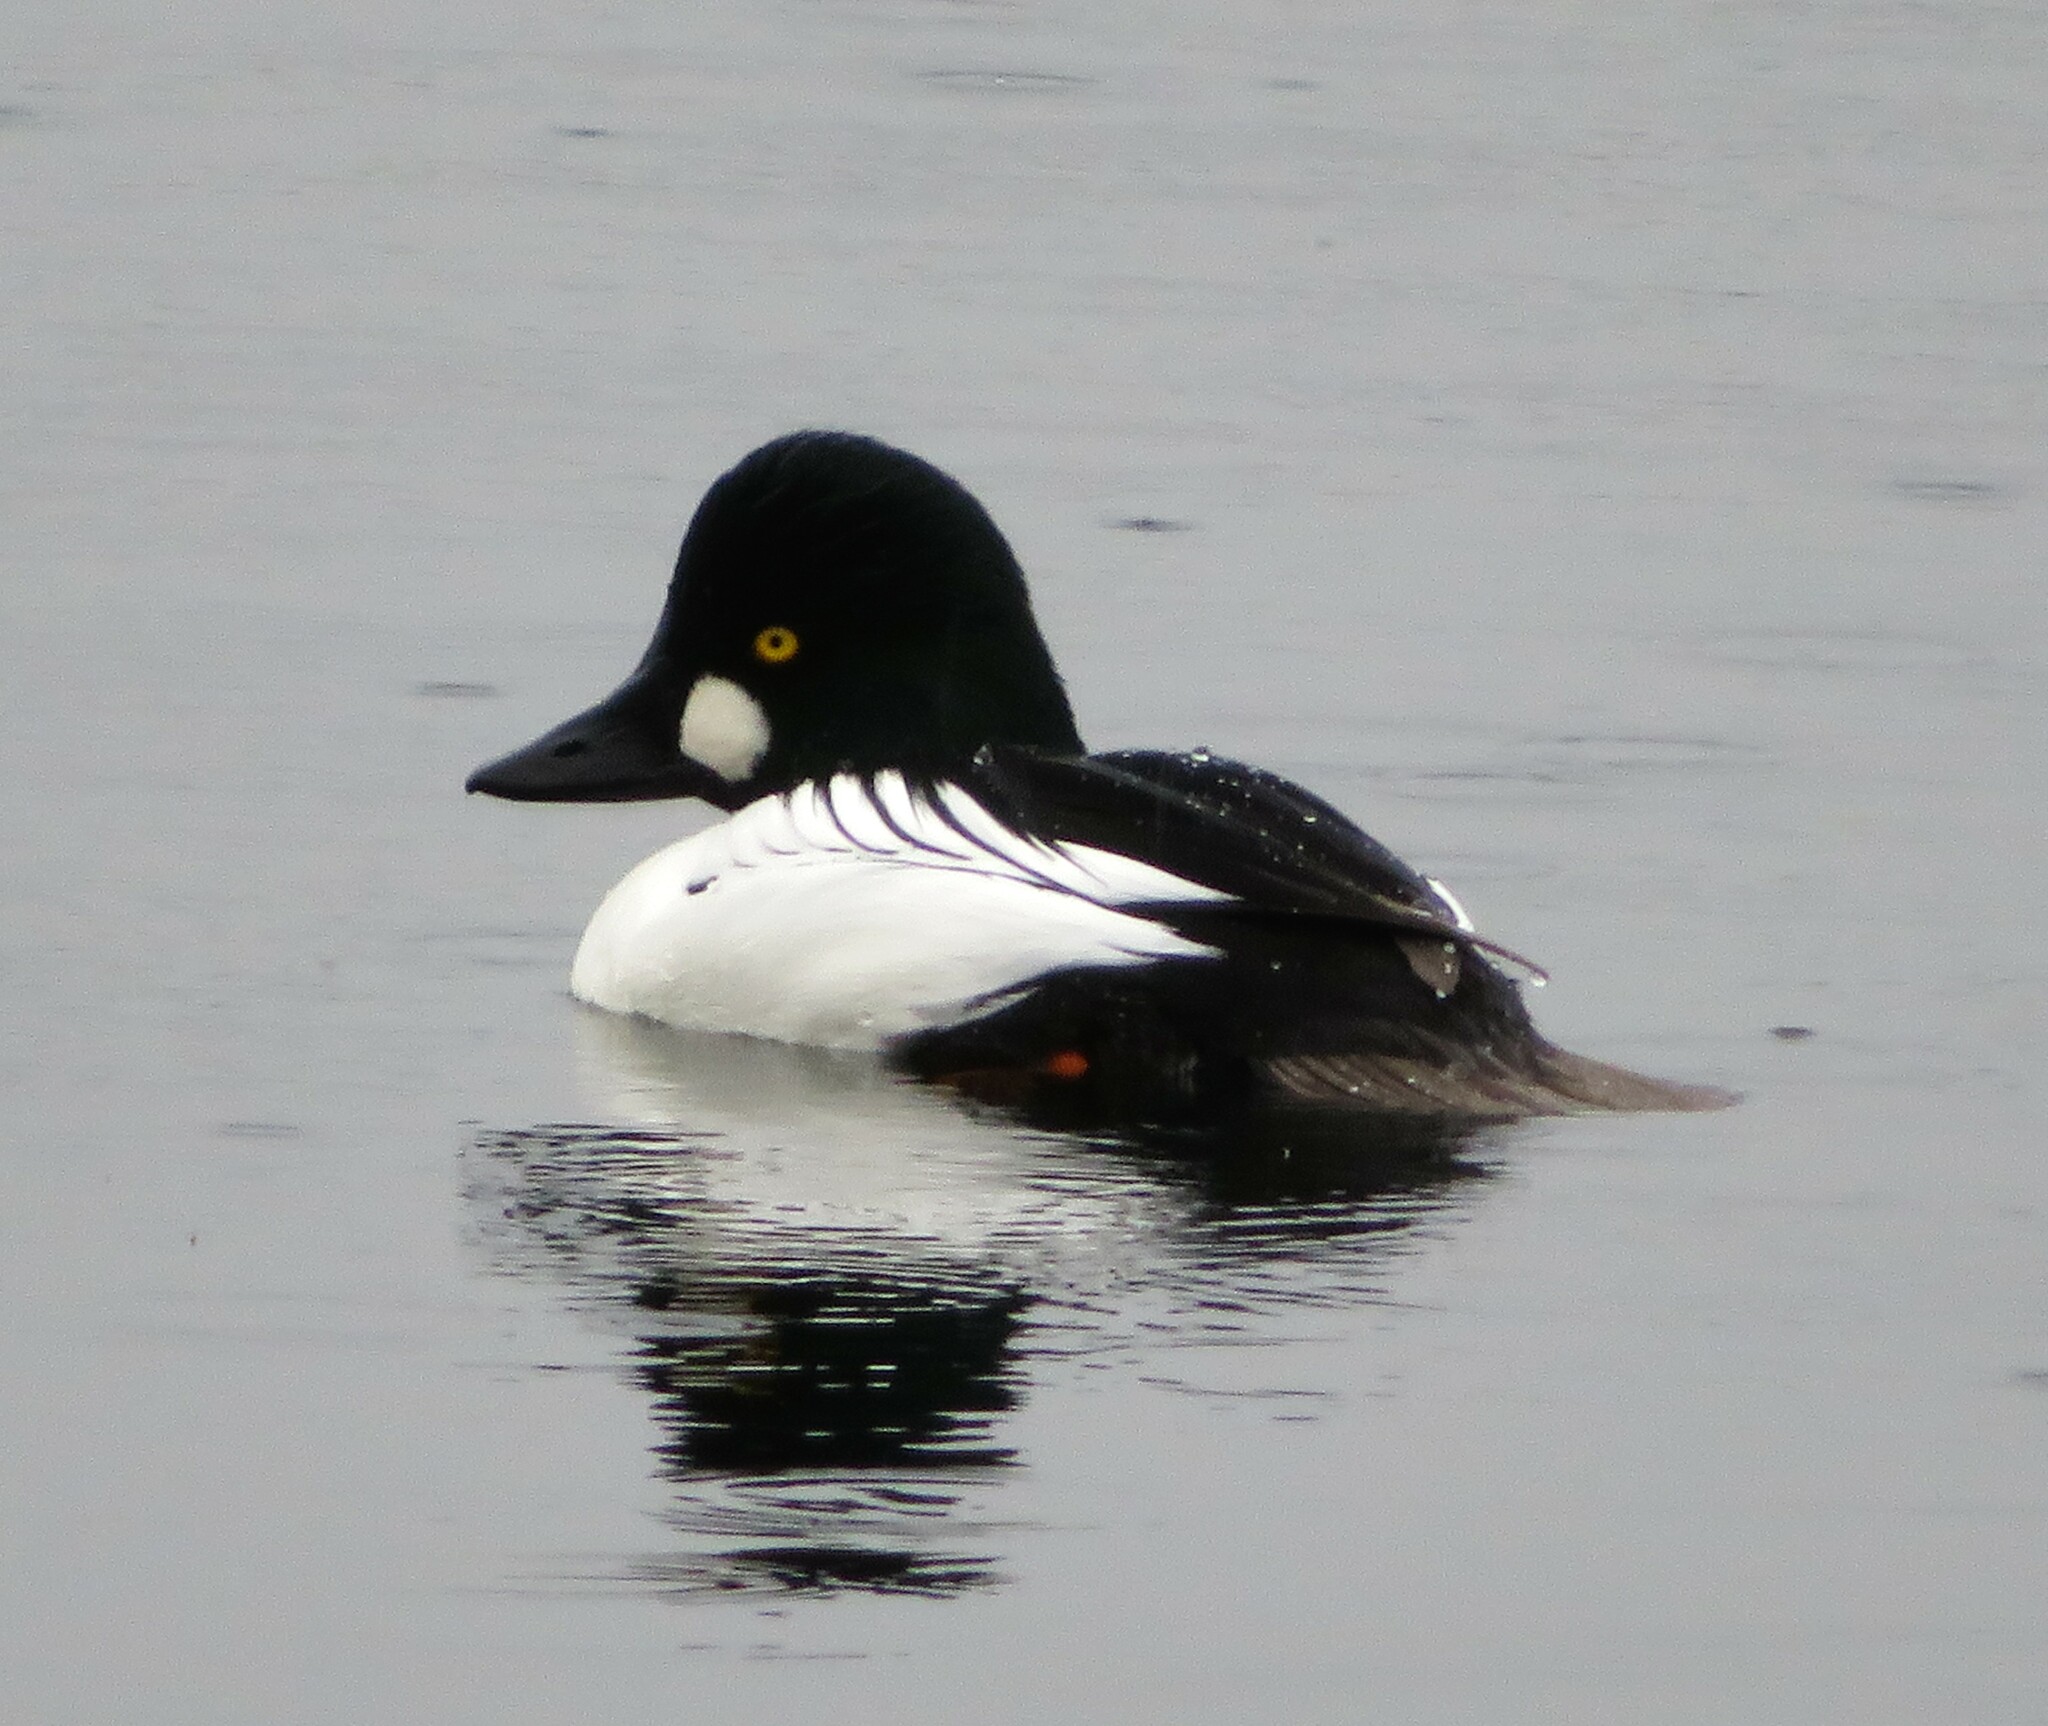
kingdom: Animalia
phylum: Chordata
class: Aves
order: Anseriformes
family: Anatidae
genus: Bucephala
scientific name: Bucephala clangula
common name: Common goldeneye
